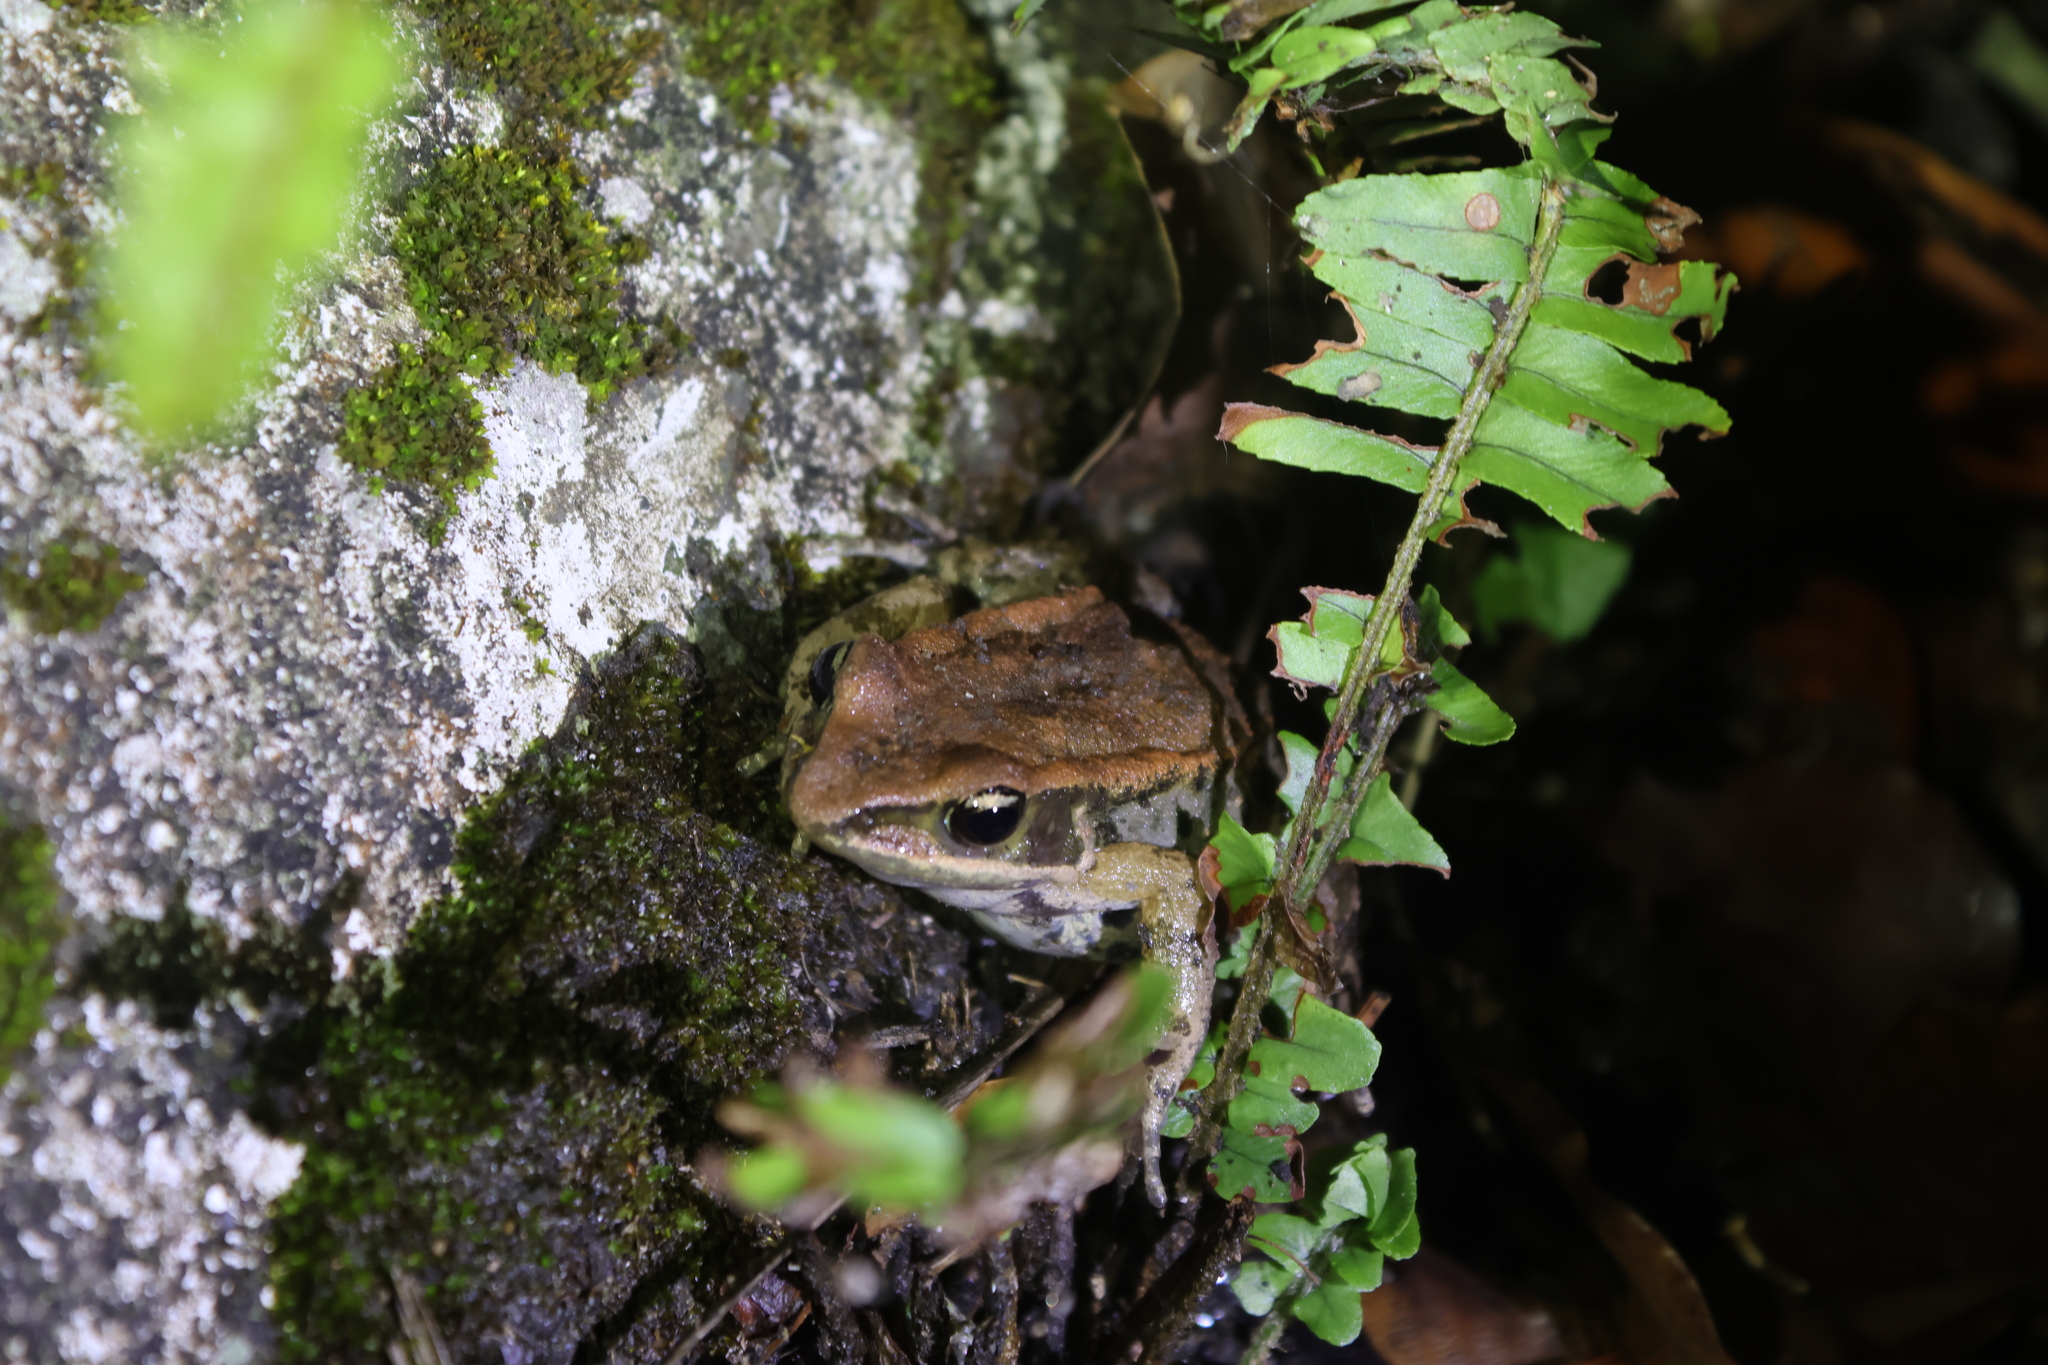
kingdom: Animalia
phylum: Chordata
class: Amphibia
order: Anura
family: Ranidae
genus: Hylarana
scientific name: Hylarana latouchii
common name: Broad-folded frog
